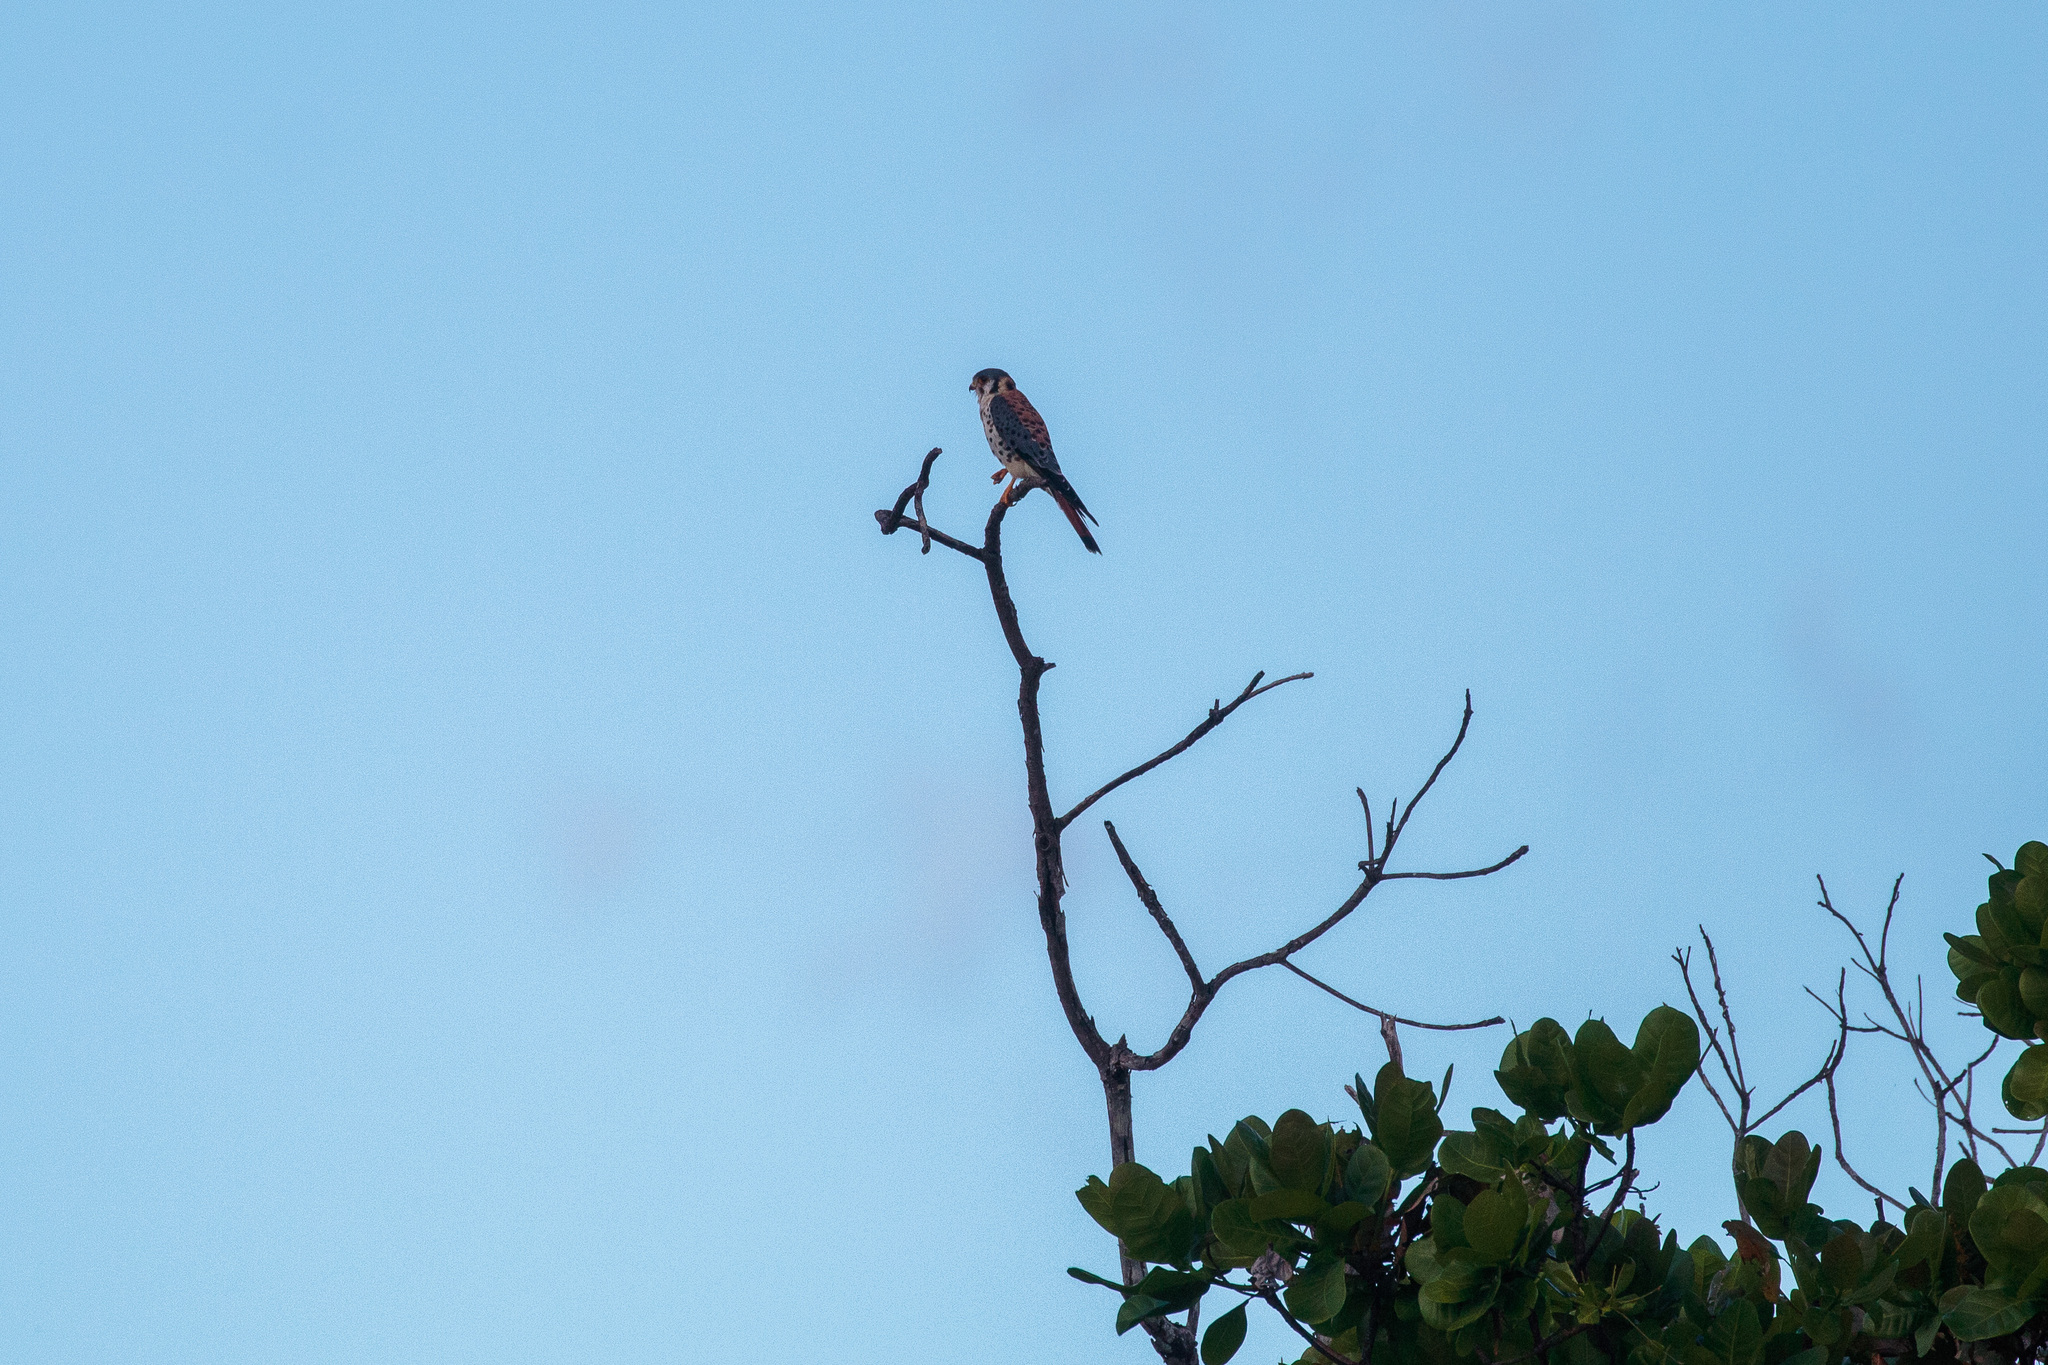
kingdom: Animalia
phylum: Chordata
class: Aves
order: Falconiformes
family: Falconidae
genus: Falco
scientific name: Falco sparverius
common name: American kestrel
